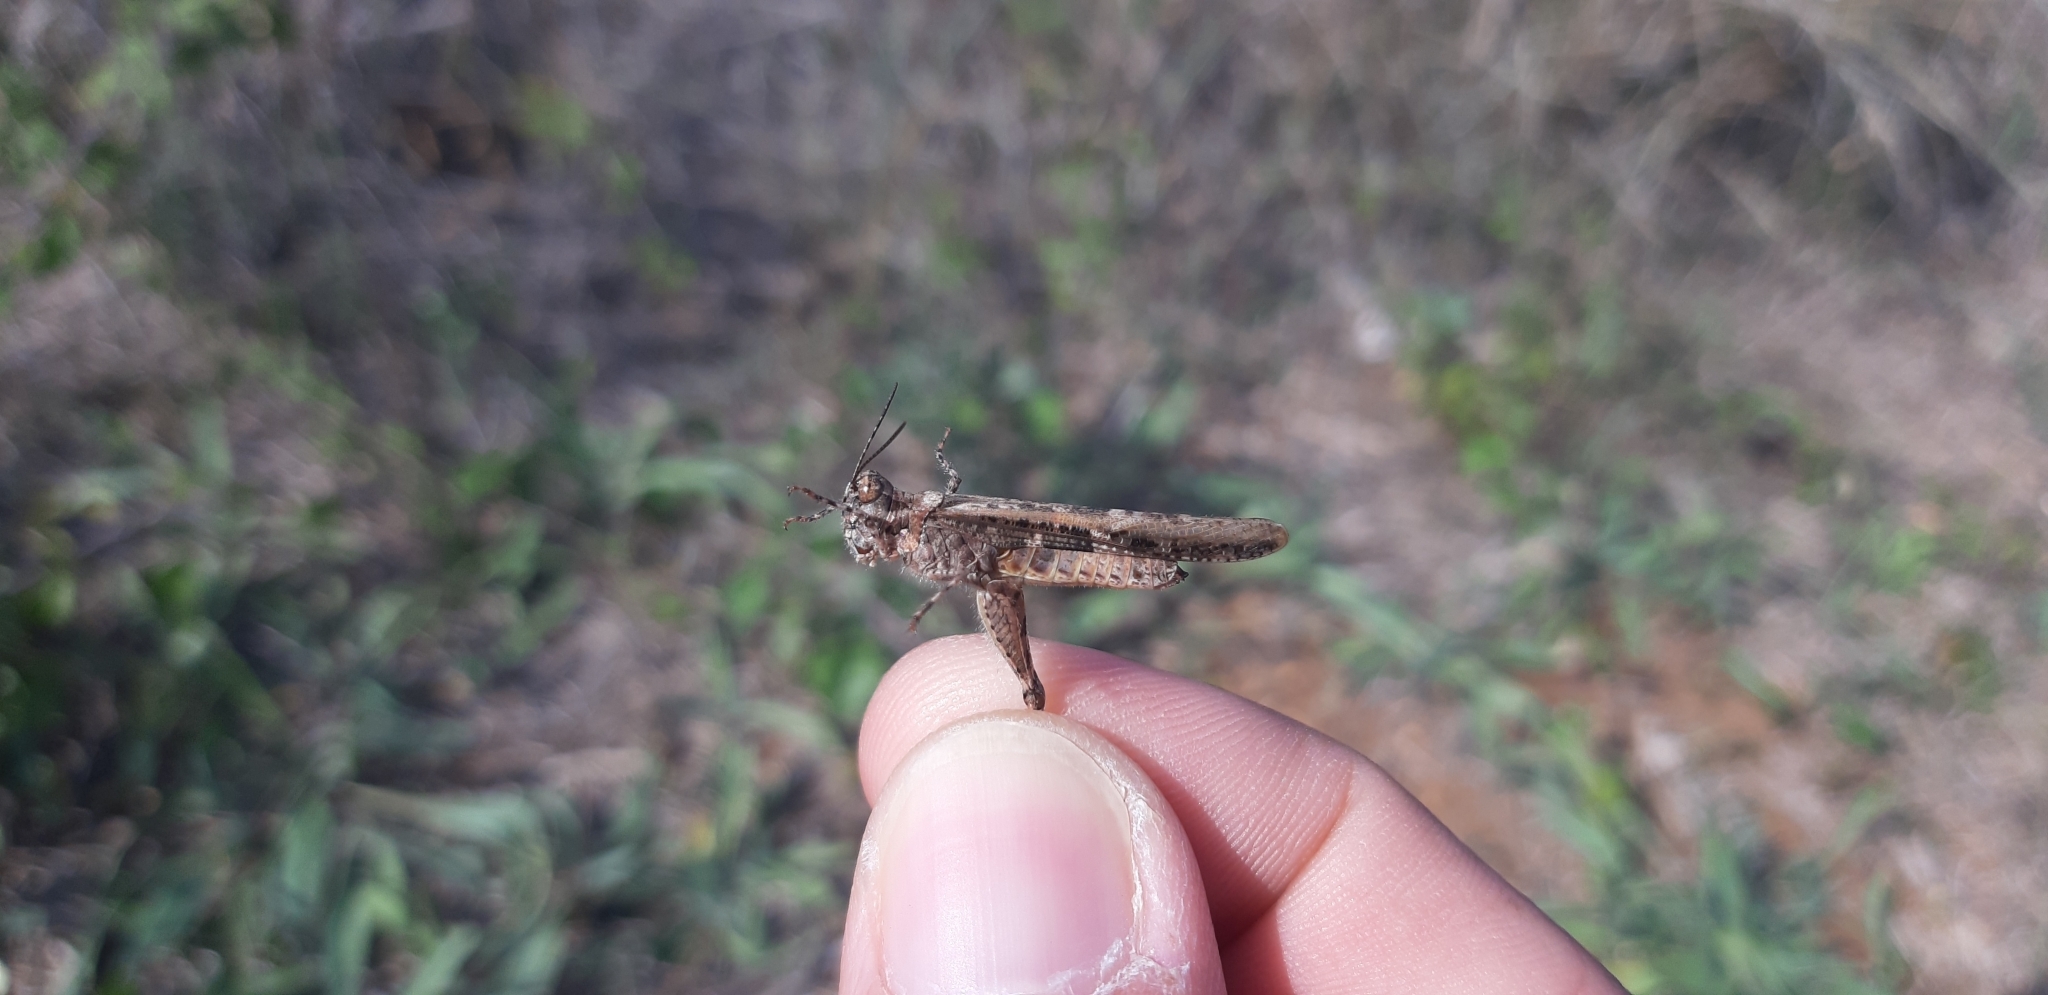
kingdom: Animalia
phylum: Arthropoda
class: Insecta
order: Orthoptera
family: Acrididae
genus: Acrotylus
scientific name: Acrotylus patruelis
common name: Slender burrowing grasshopper
